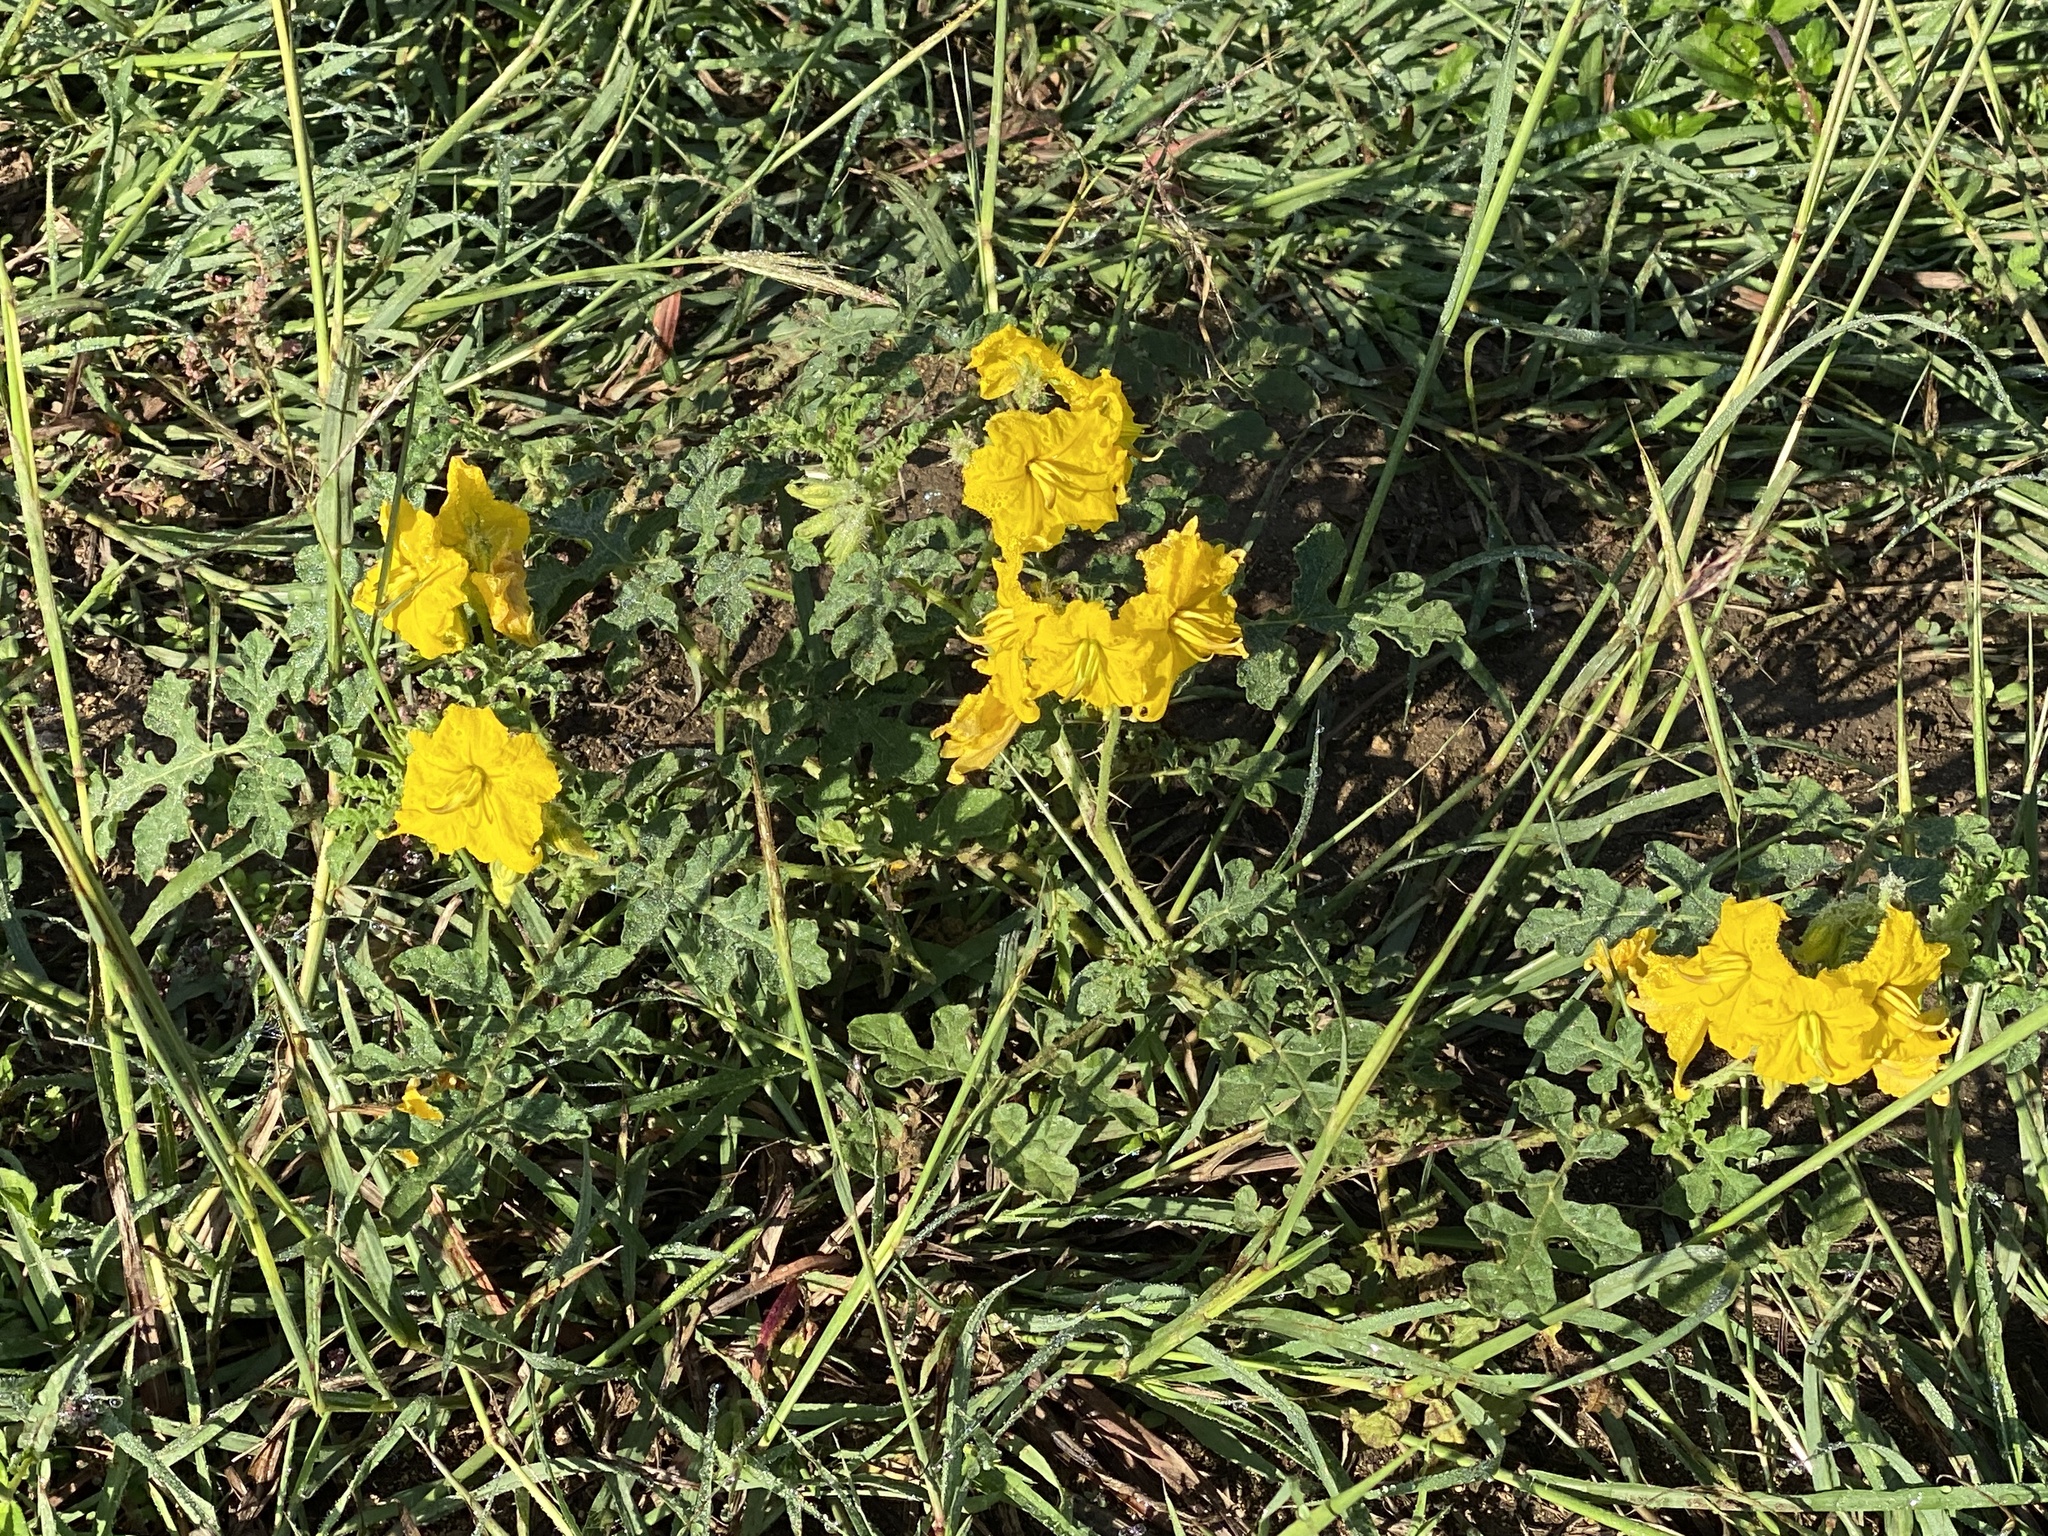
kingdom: Plantae
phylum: Tracheophyta
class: Magnoliopsida
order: Solanales
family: Solanaceae
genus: Solanum
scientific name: Solanum angustifolium
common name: Buffalobur nightshade
